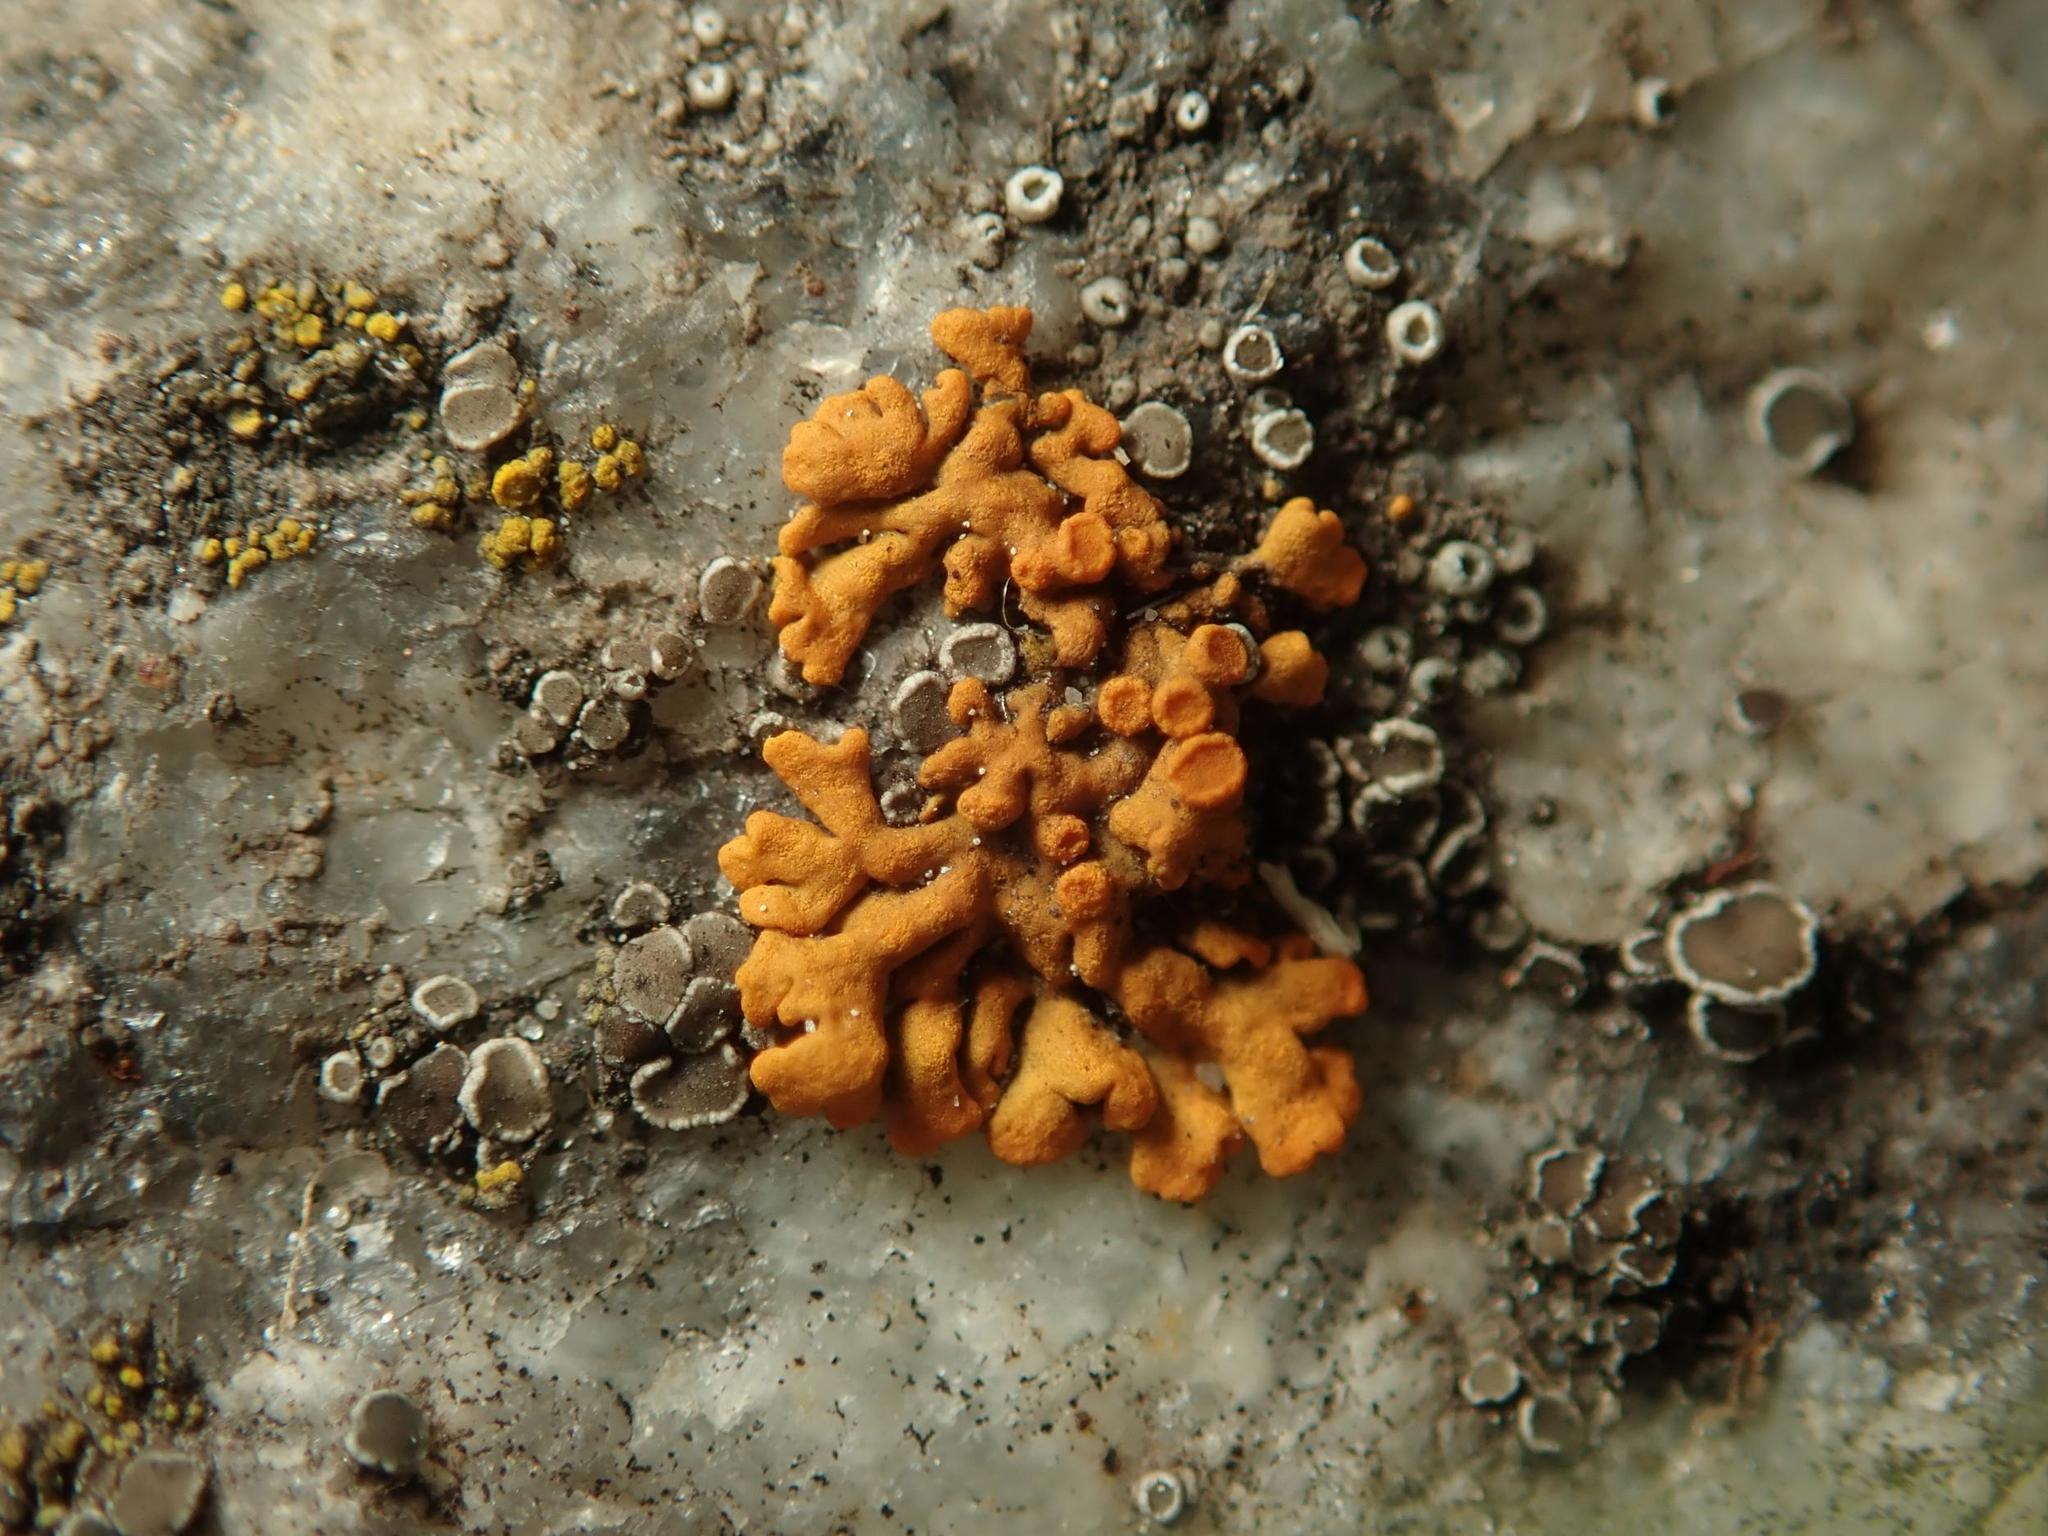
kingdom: Fungi
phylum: Ascomycota
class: Lecanoromycetes
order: Teloschistales
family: Teloschistaceae
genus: Xanthoria
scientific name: Xanthoria elegans
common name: Elegant sunburst lichen
